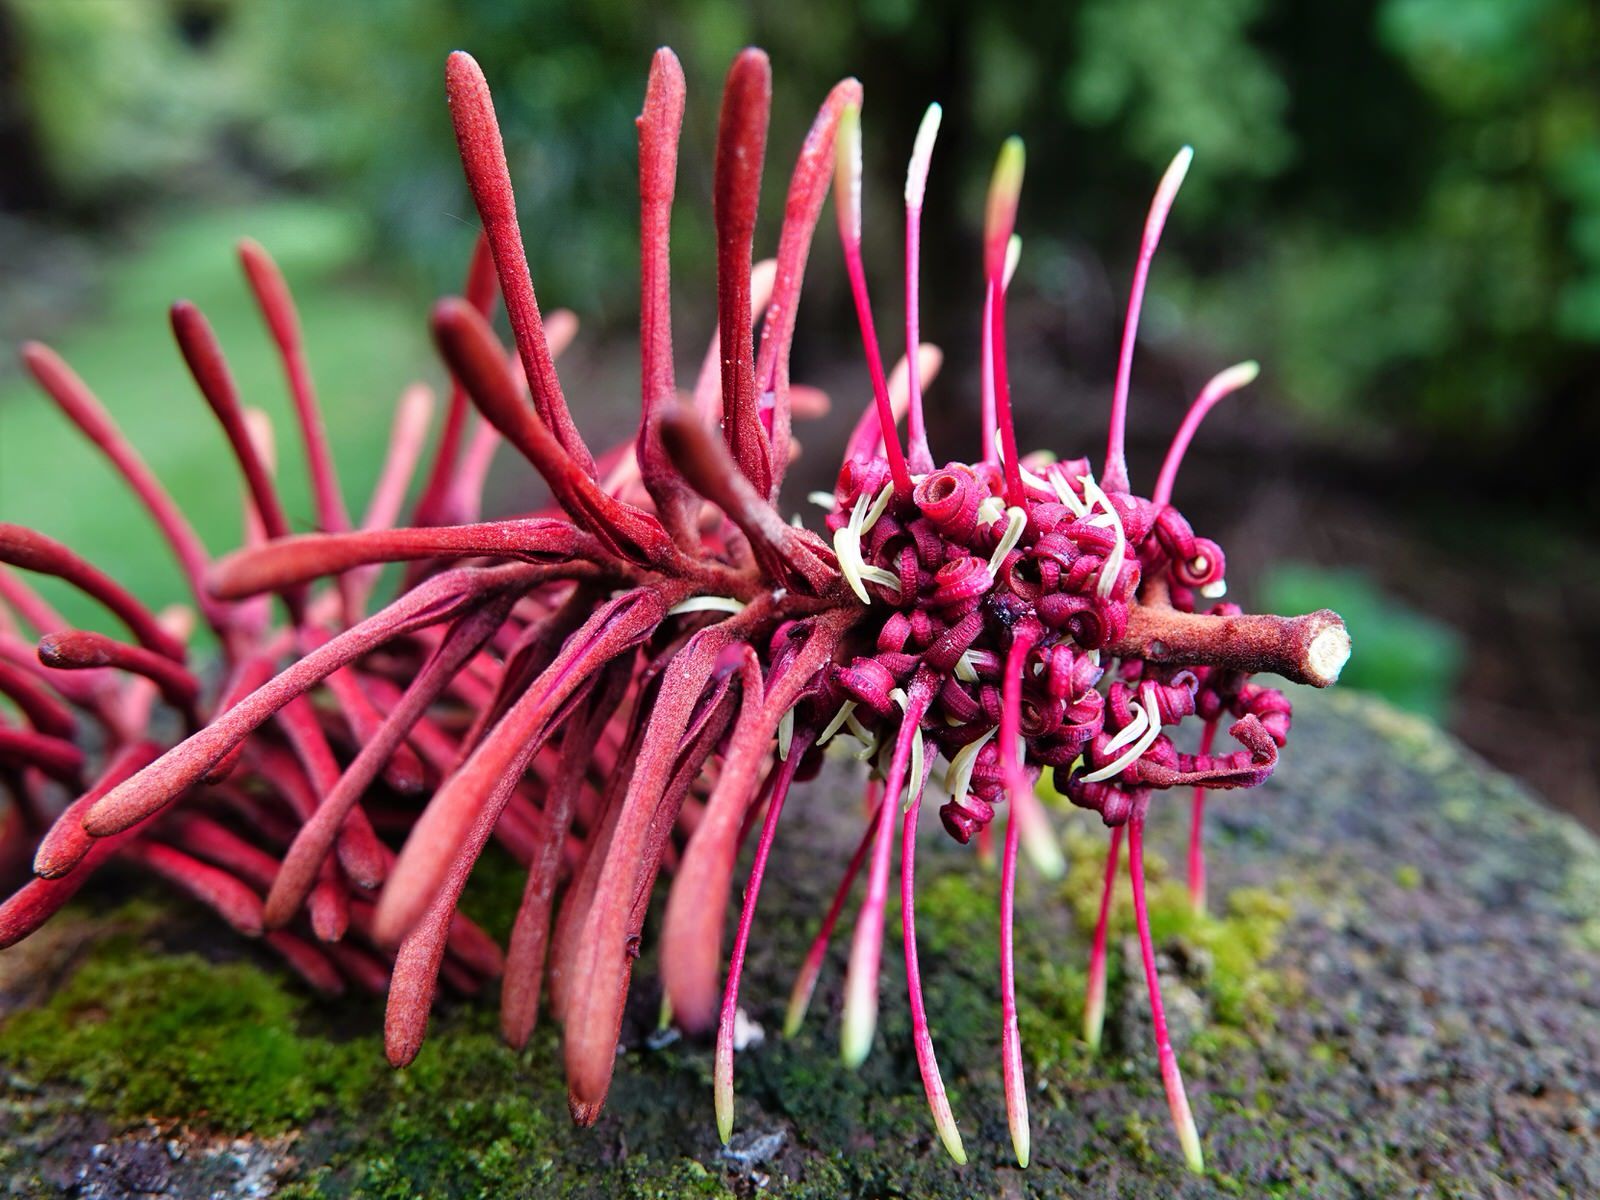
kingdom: Plantae
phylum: Tracheophyta
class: Magnoliopsida
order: Proteales
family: Proteaceae
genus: Knightia
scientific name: Knightia excelsa
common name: New zealand-honeysuckle
